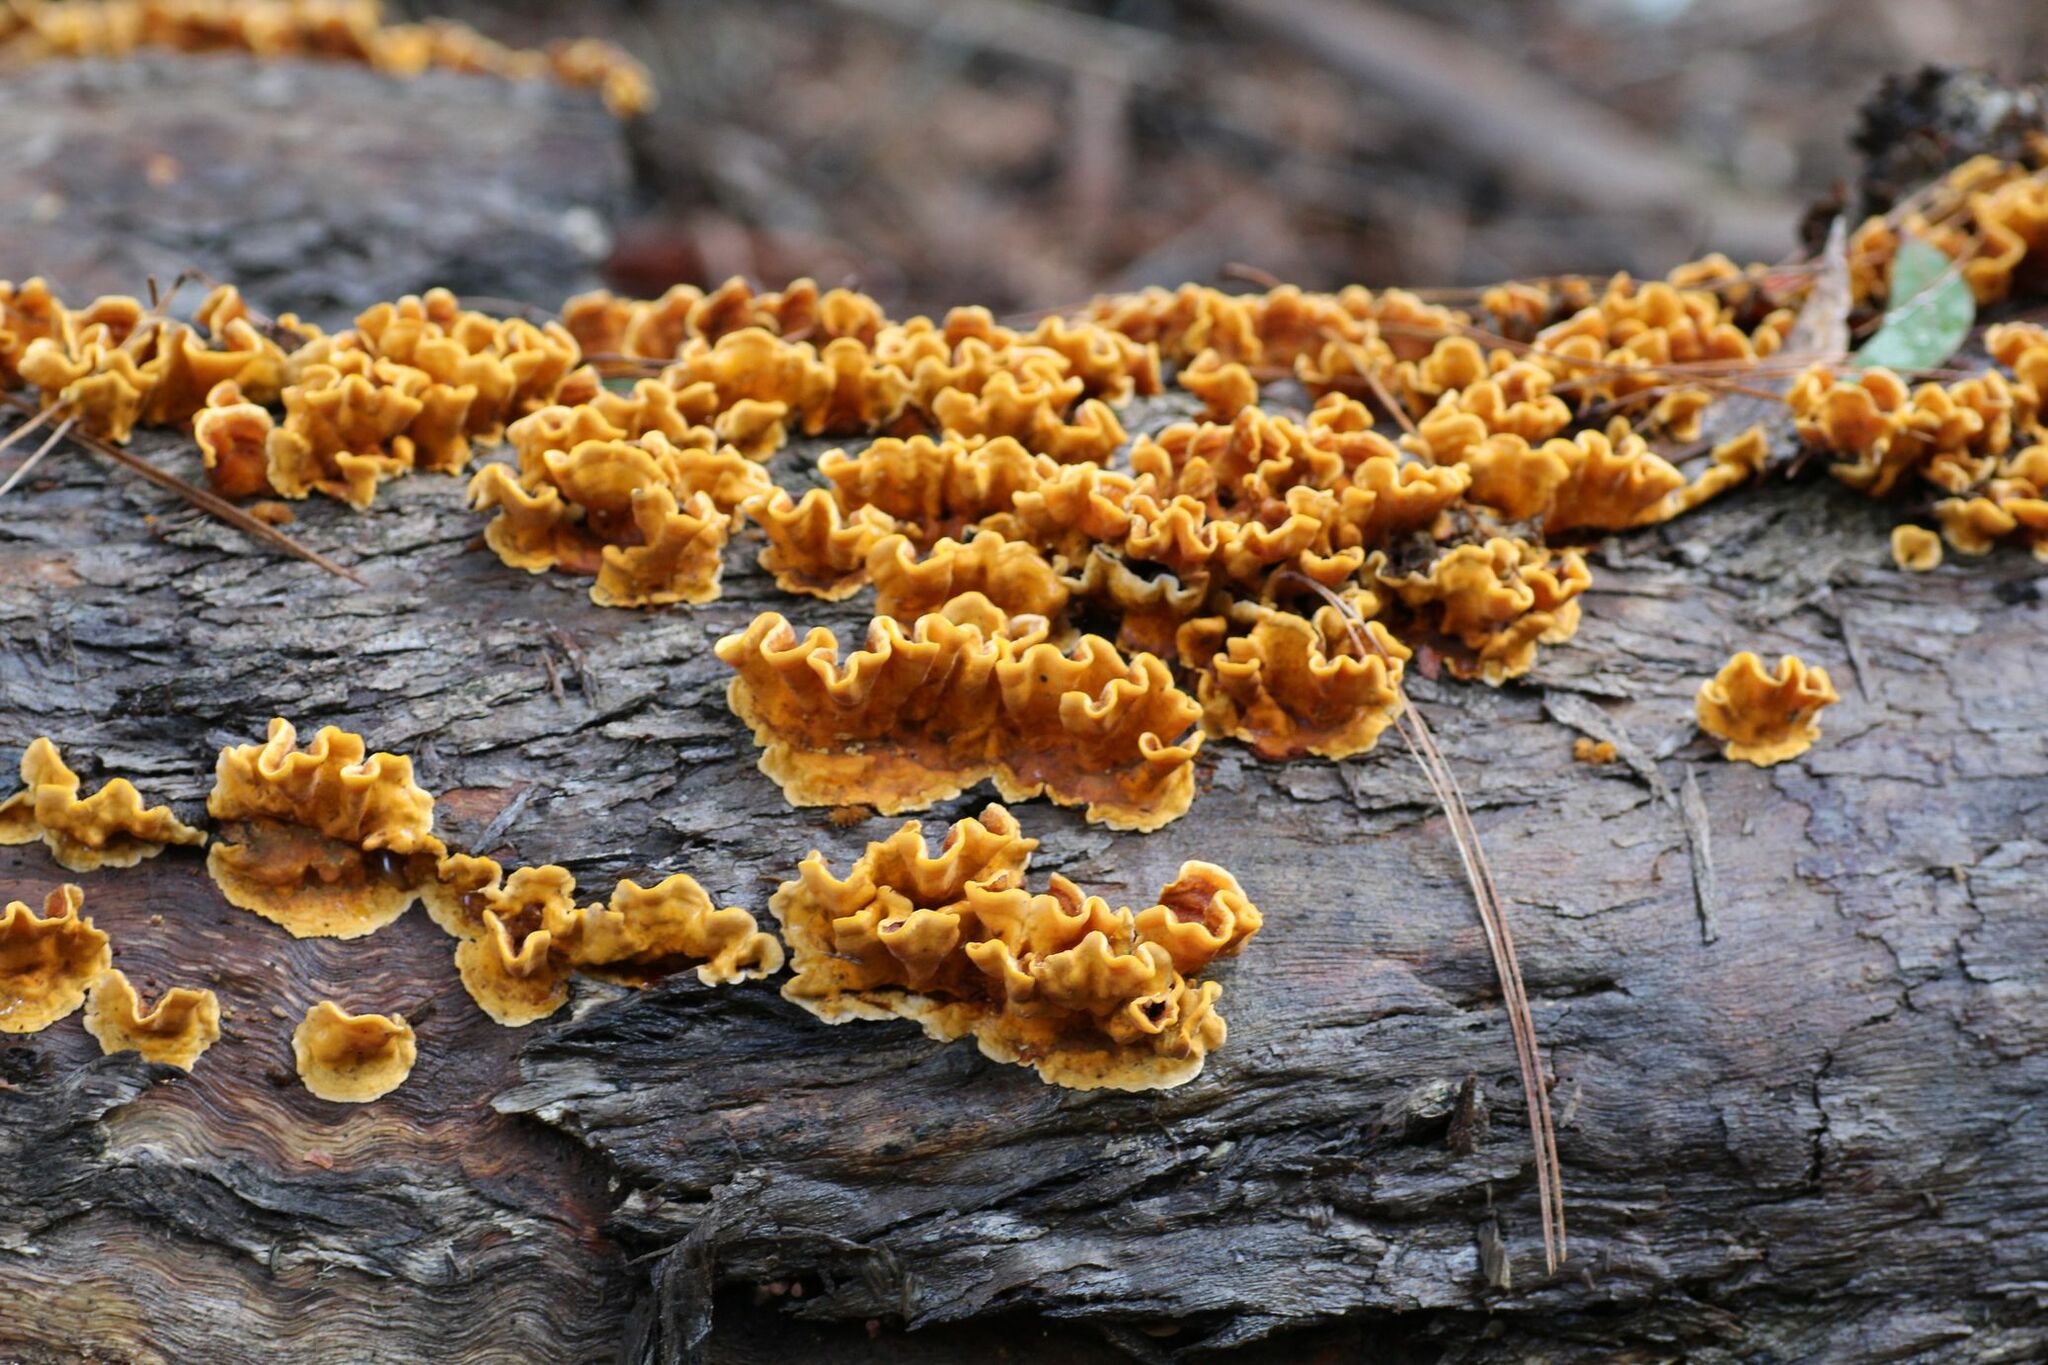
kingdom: Fungi
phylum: Basidiomycota
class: Agaricomycetes
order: Russulales
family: Stereaceae
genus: Stereum
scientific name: Stereum hirsutum
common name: Hairy curtain crust
